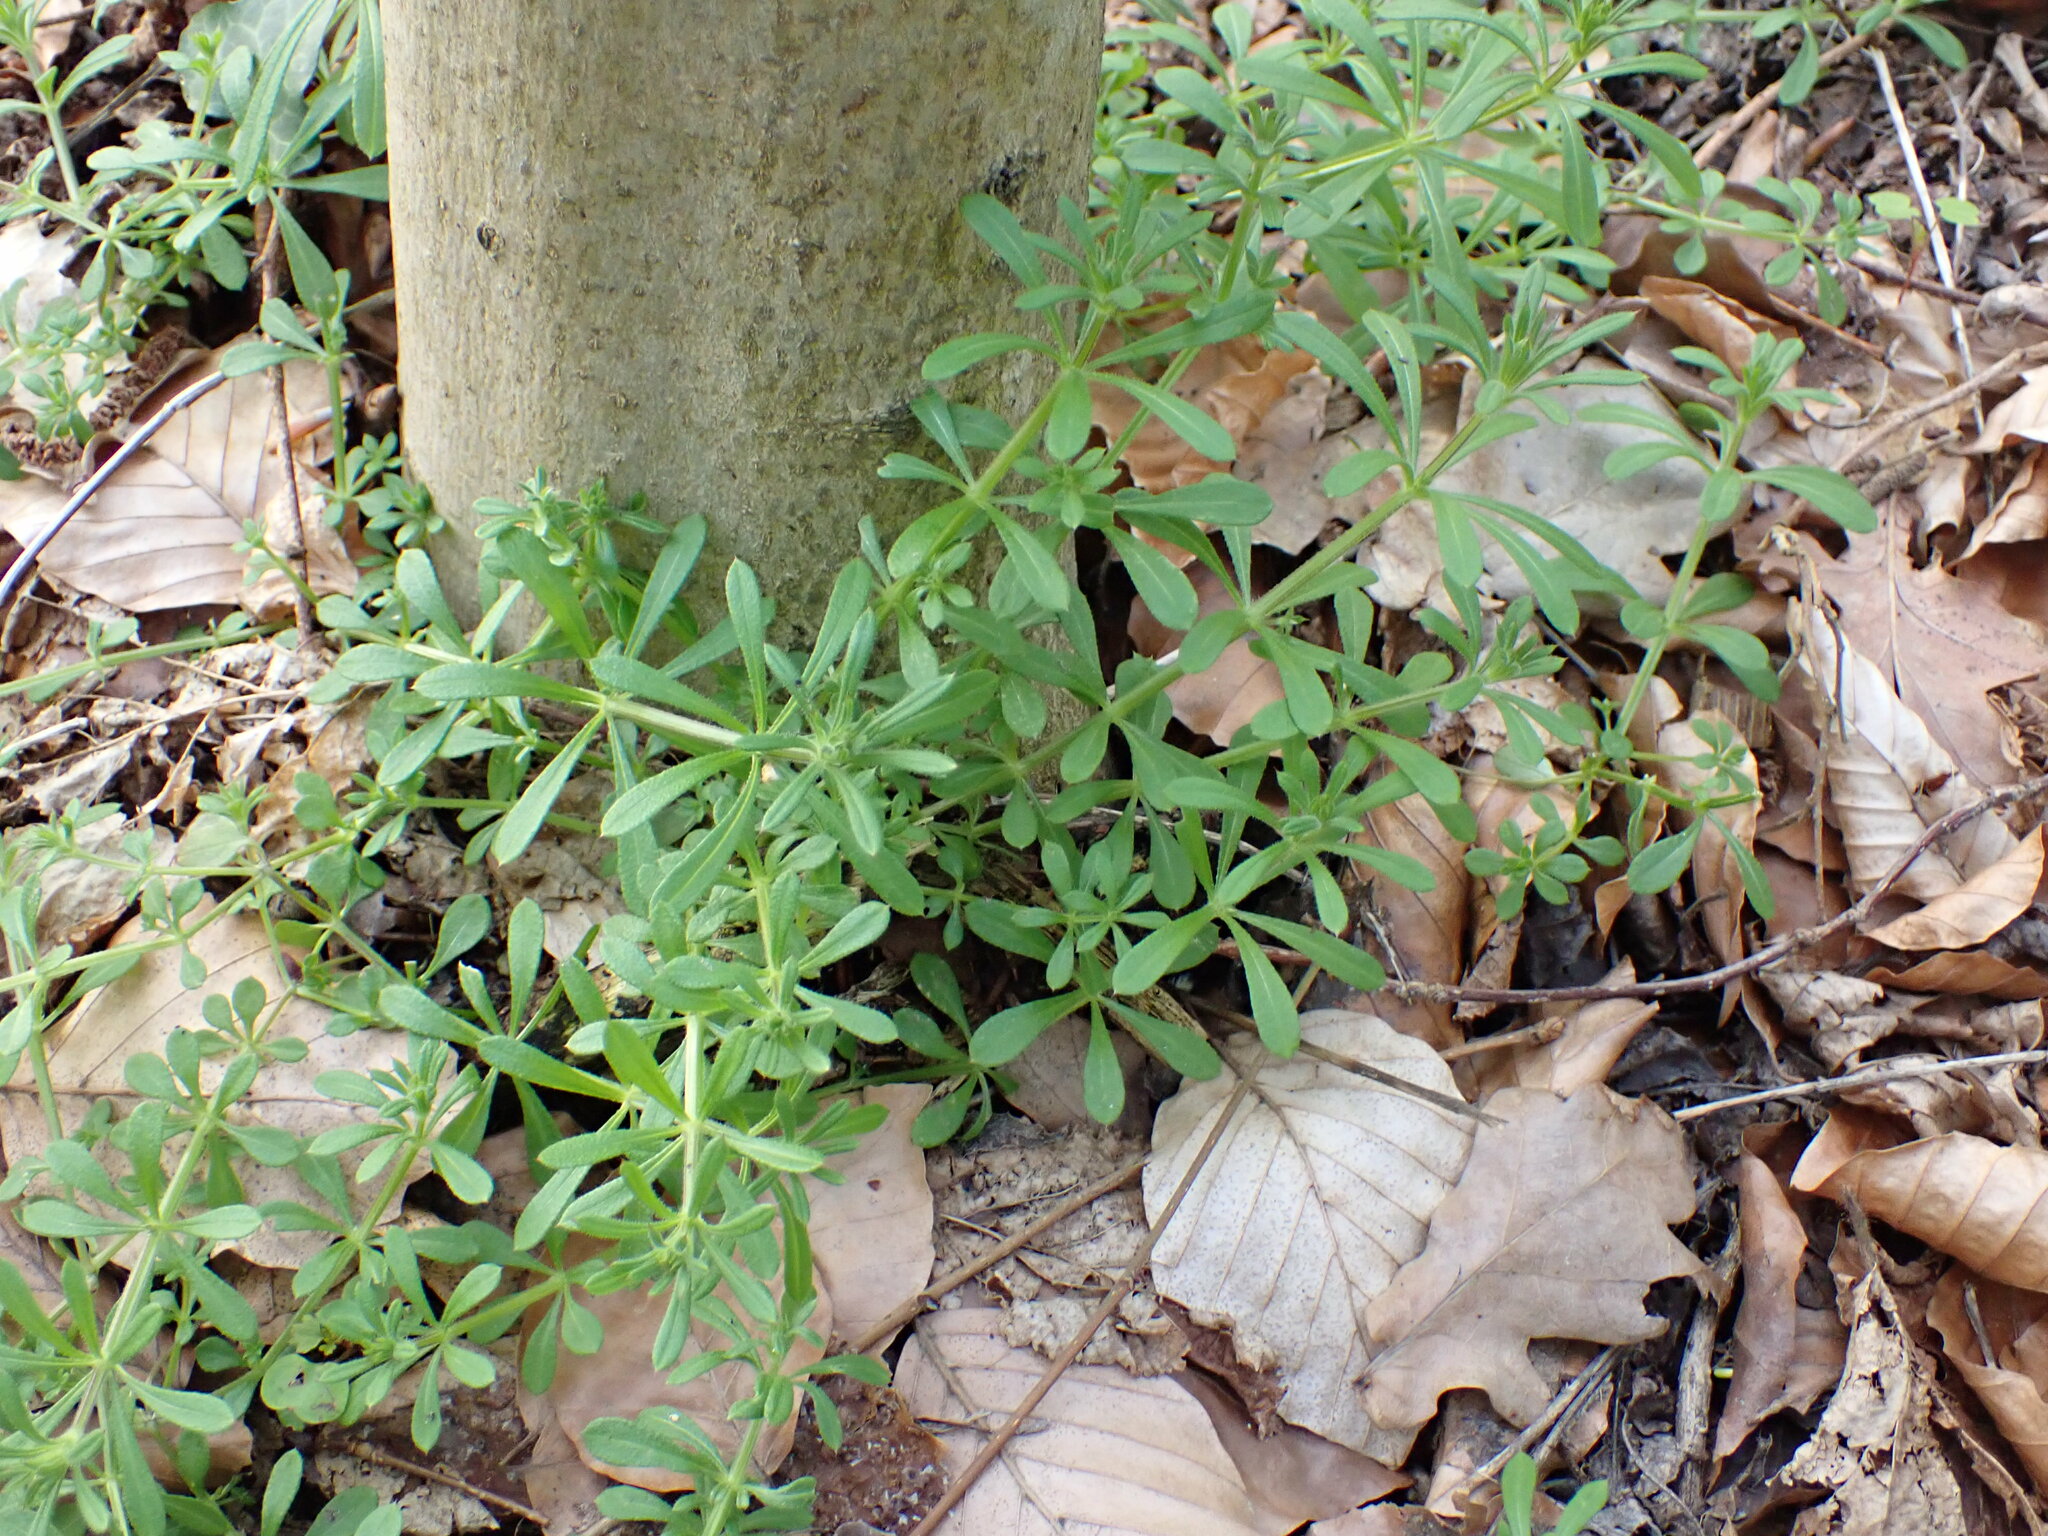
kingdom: Plantae
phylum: Tracheophyta
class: Magnoliopsida
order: Gentianales
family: Rubiaceae
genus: Galium
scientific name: Galium aparine
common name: Cleavers
